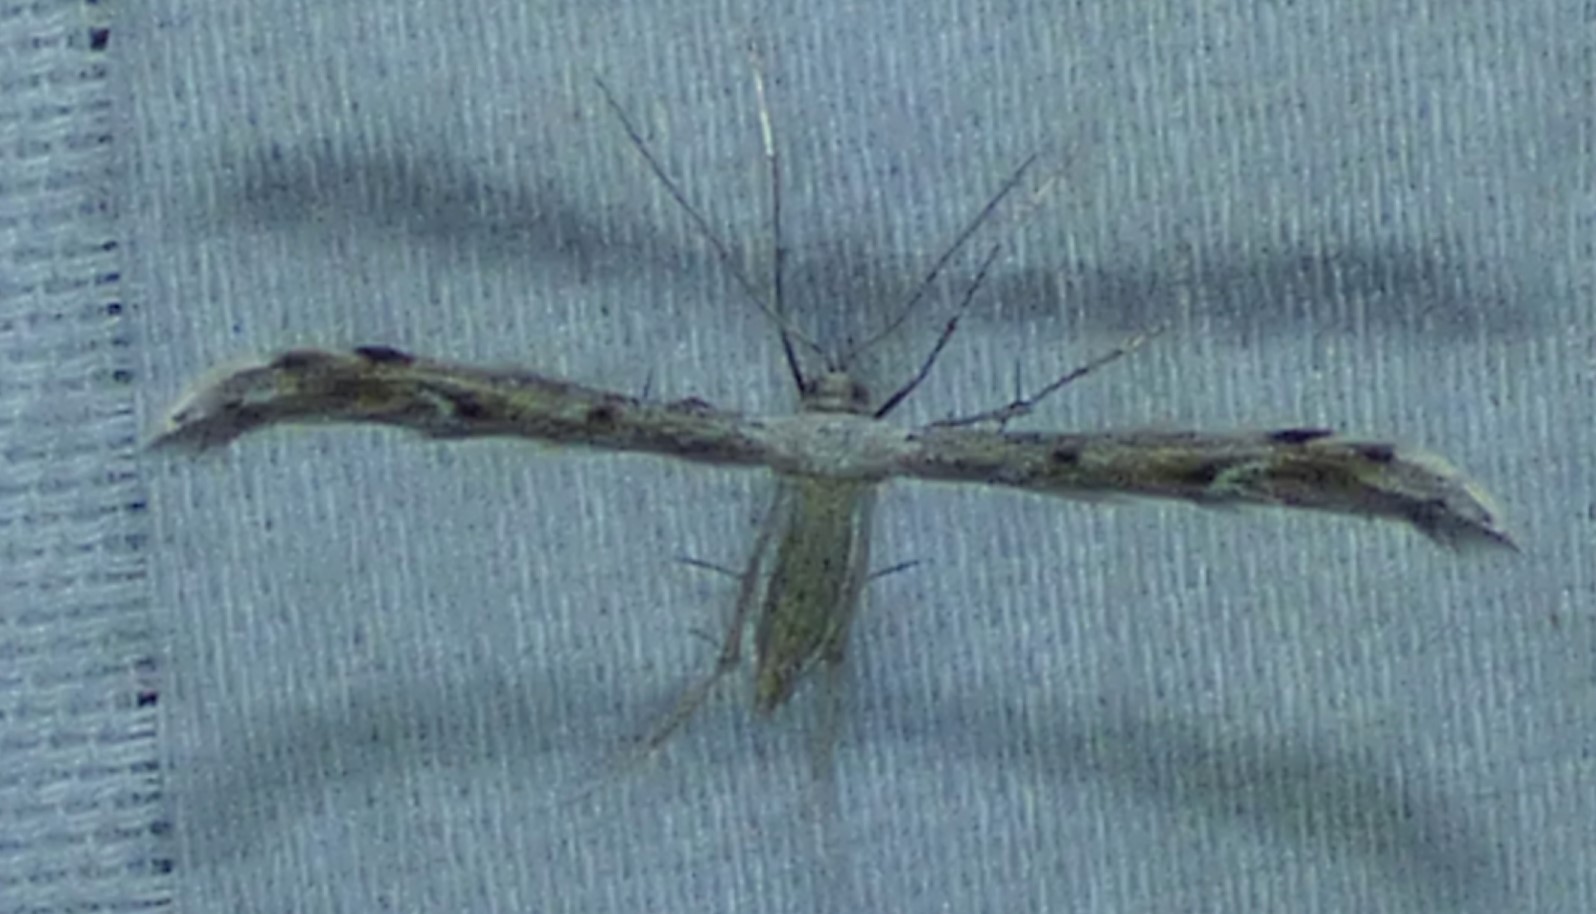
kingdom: Animalia
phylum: Arthropoda
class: Insecta
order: Lepidoptera
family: Pterophoridae
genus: Pselnophorus
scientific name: Pselnophorus belfragei
